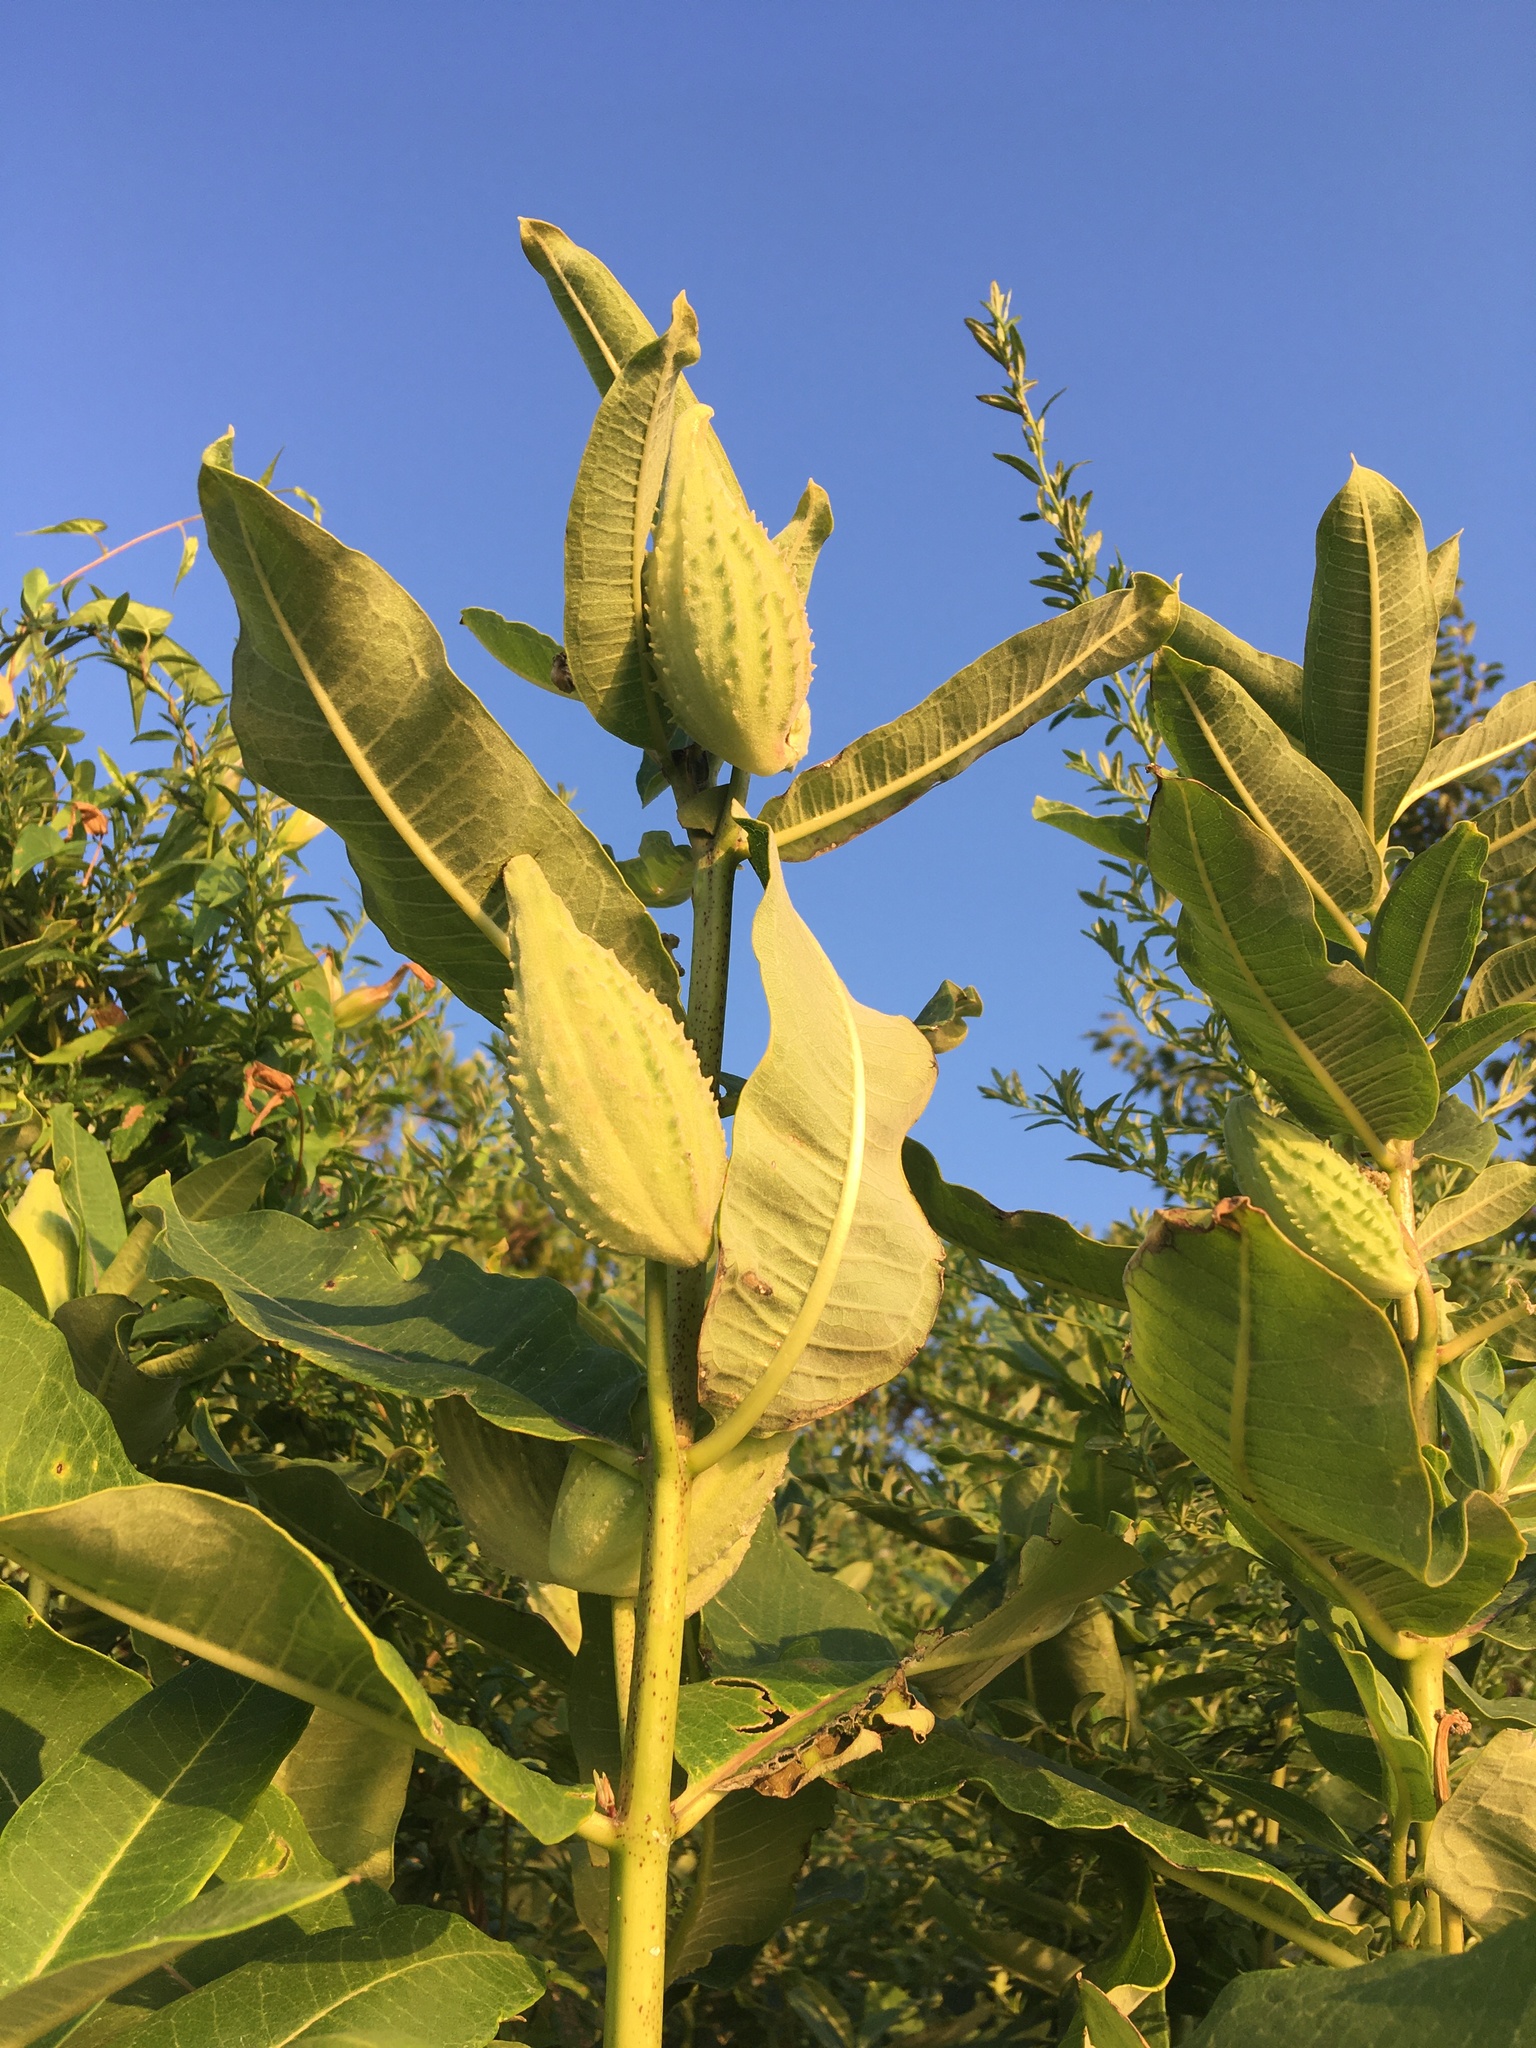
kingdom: Plantae
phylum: Tracheophyta
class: Magnoliopsida
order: Gentianales
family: Apocynaceae
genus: Asclepias
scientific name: Asclepias syriaca
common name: Common milkweed
